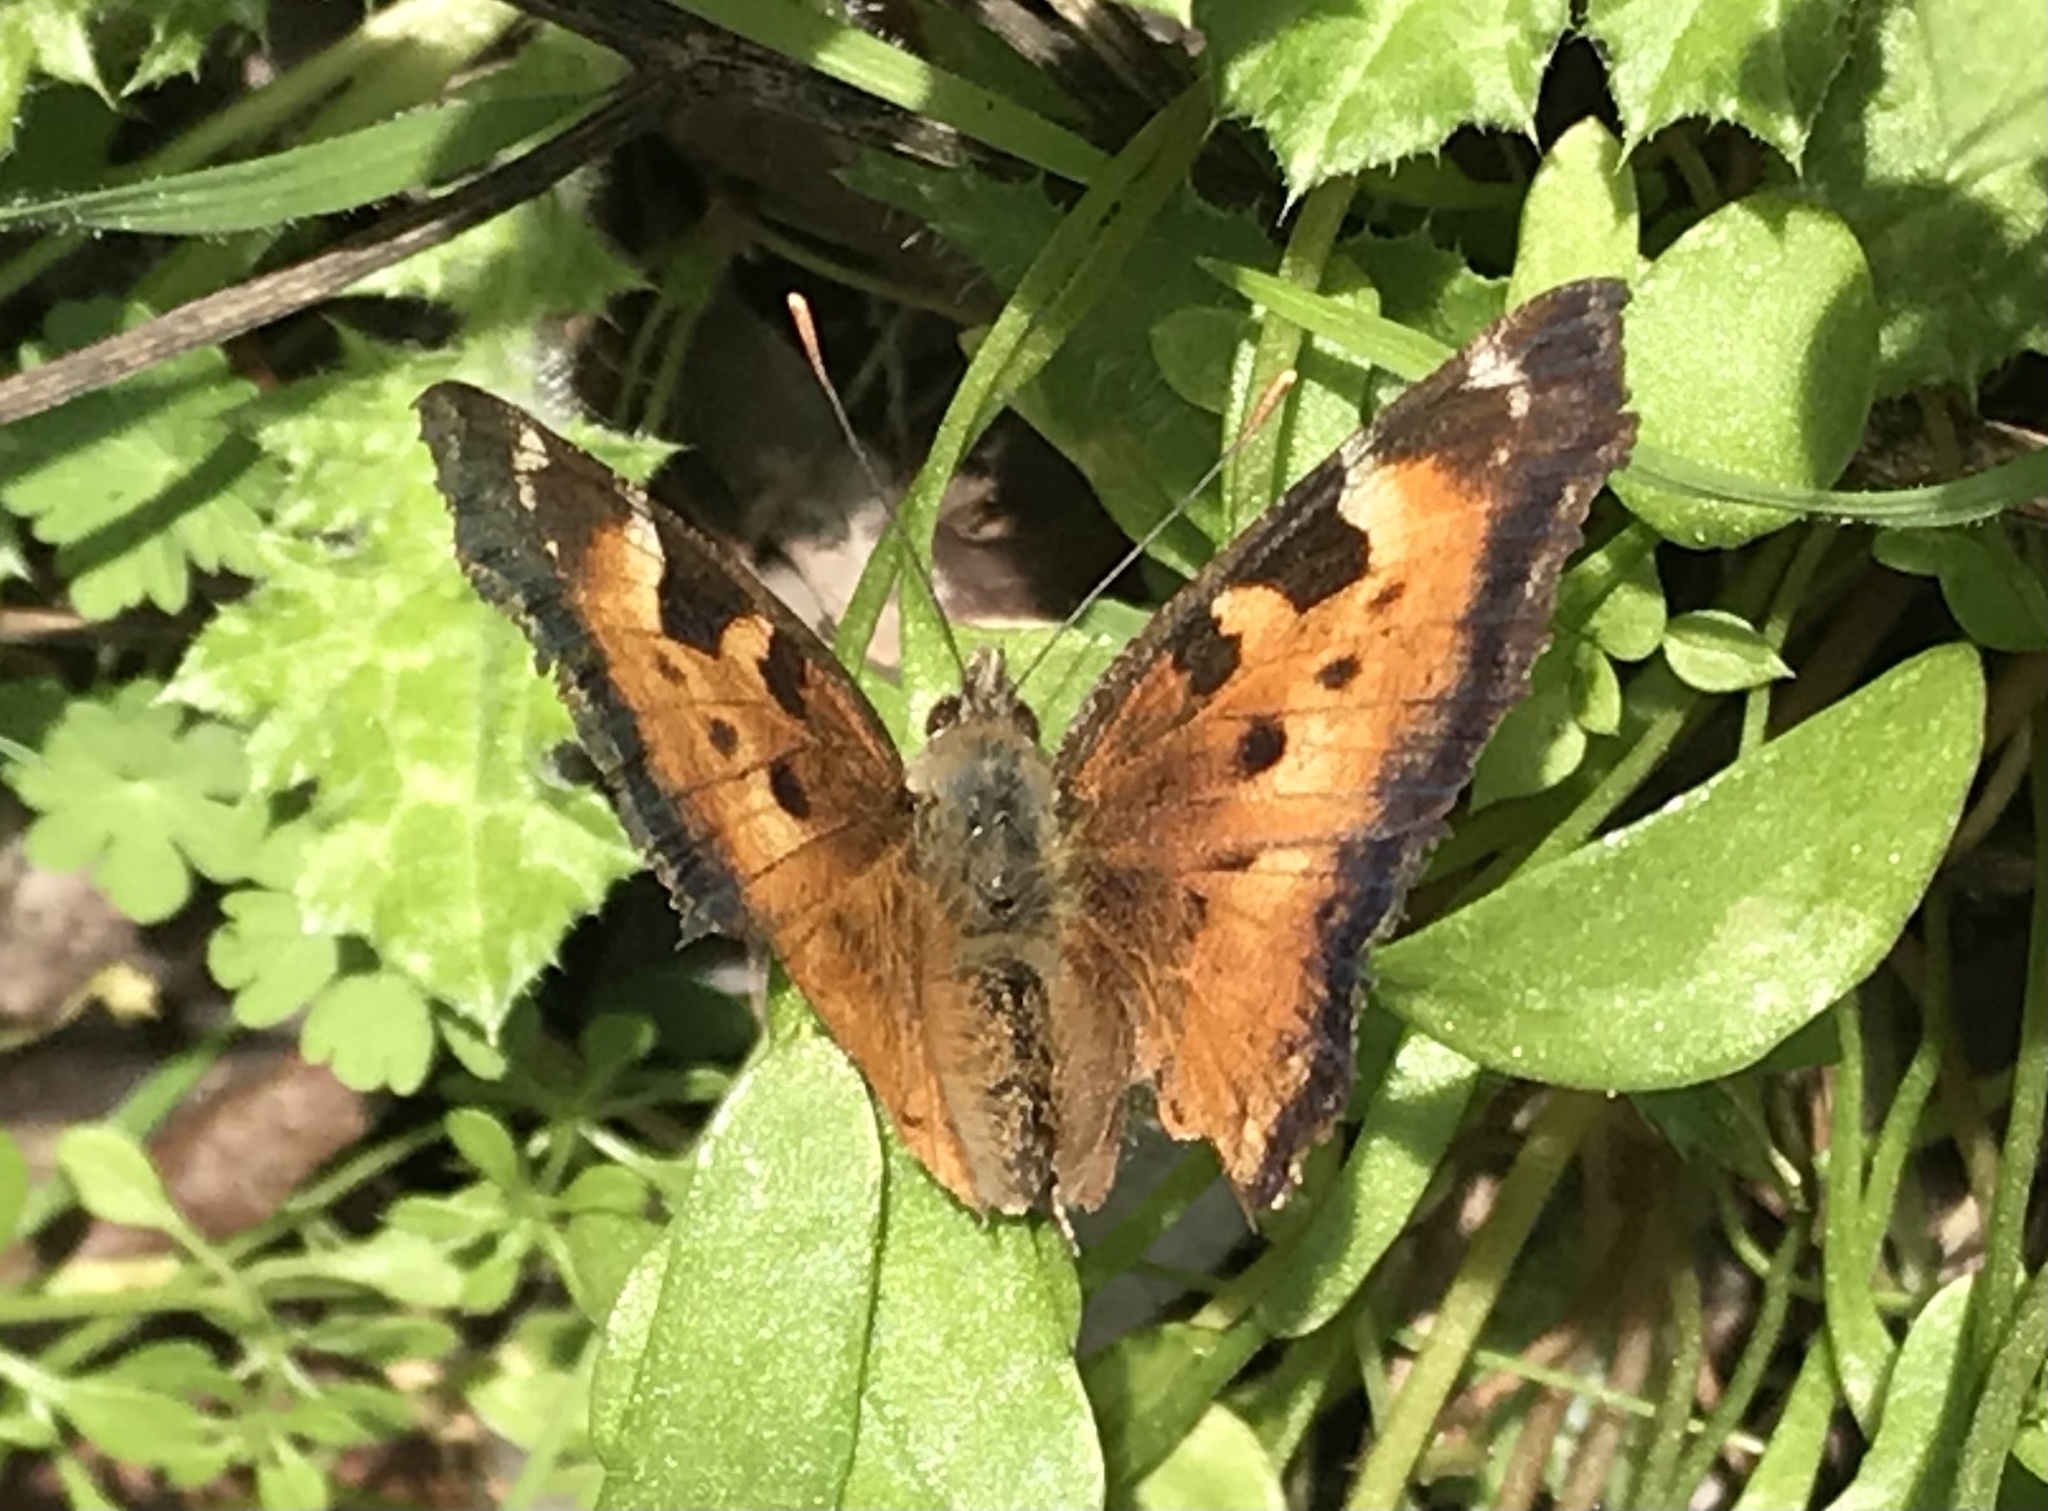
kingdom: Animalia
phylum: Arthropoda
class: Insecta
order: Lepidoptera
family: Nymphalidae
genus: Nymphalis
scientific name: Nymphalis californica
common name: California tortoiseshell
